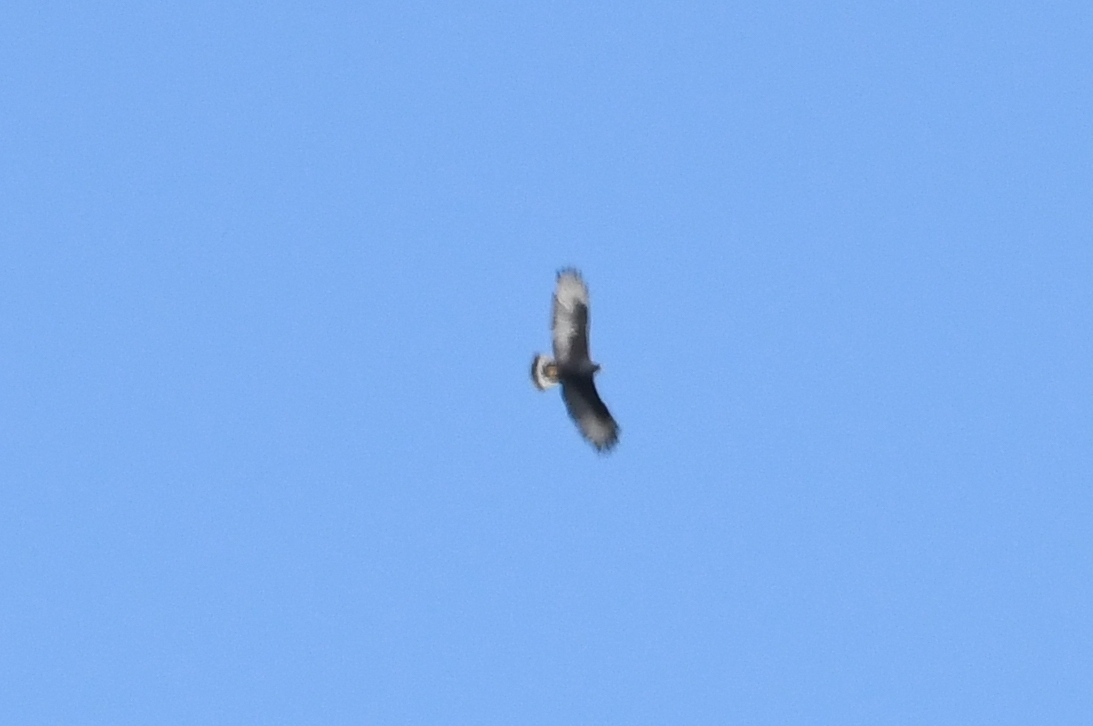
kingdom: Animalia
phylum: Chordata
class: Aves
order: Accipitriformes
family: Accipitridae
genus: Buteo
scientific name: Buteo albonotatus
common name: Zone-tailed hawk
